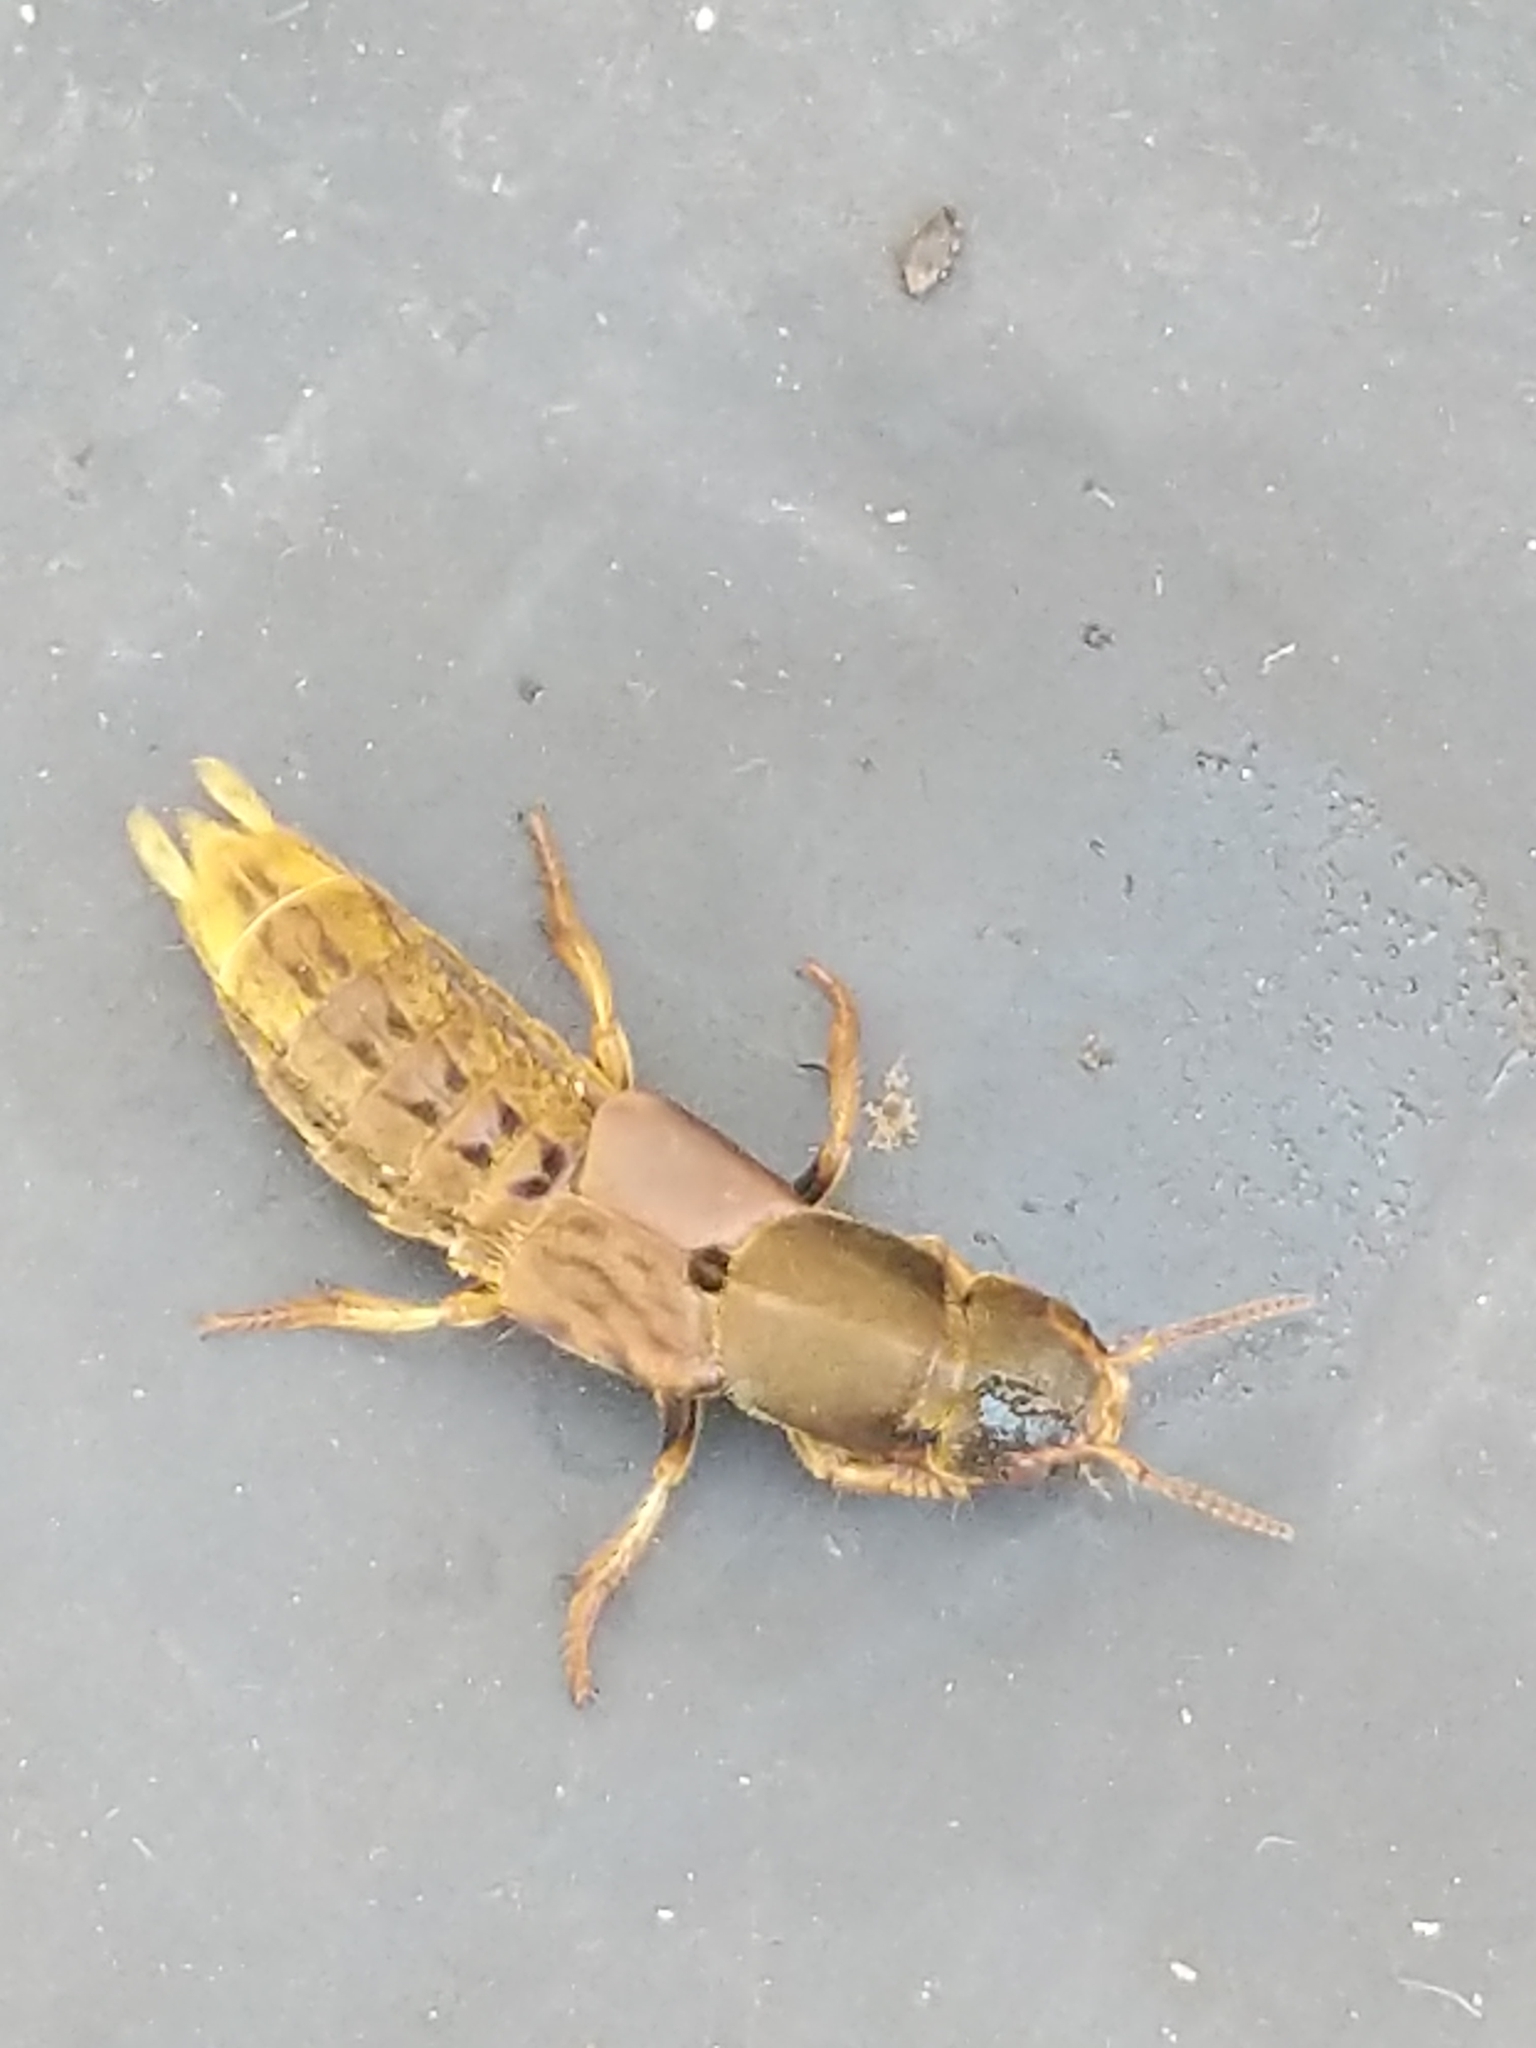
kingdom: Animalia
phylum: Arthropoda
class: Insecta
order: Coleoptera
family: Staphylinidae
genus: Platydracus
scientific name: Platydracus maculosus
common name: Brown rove beetle
